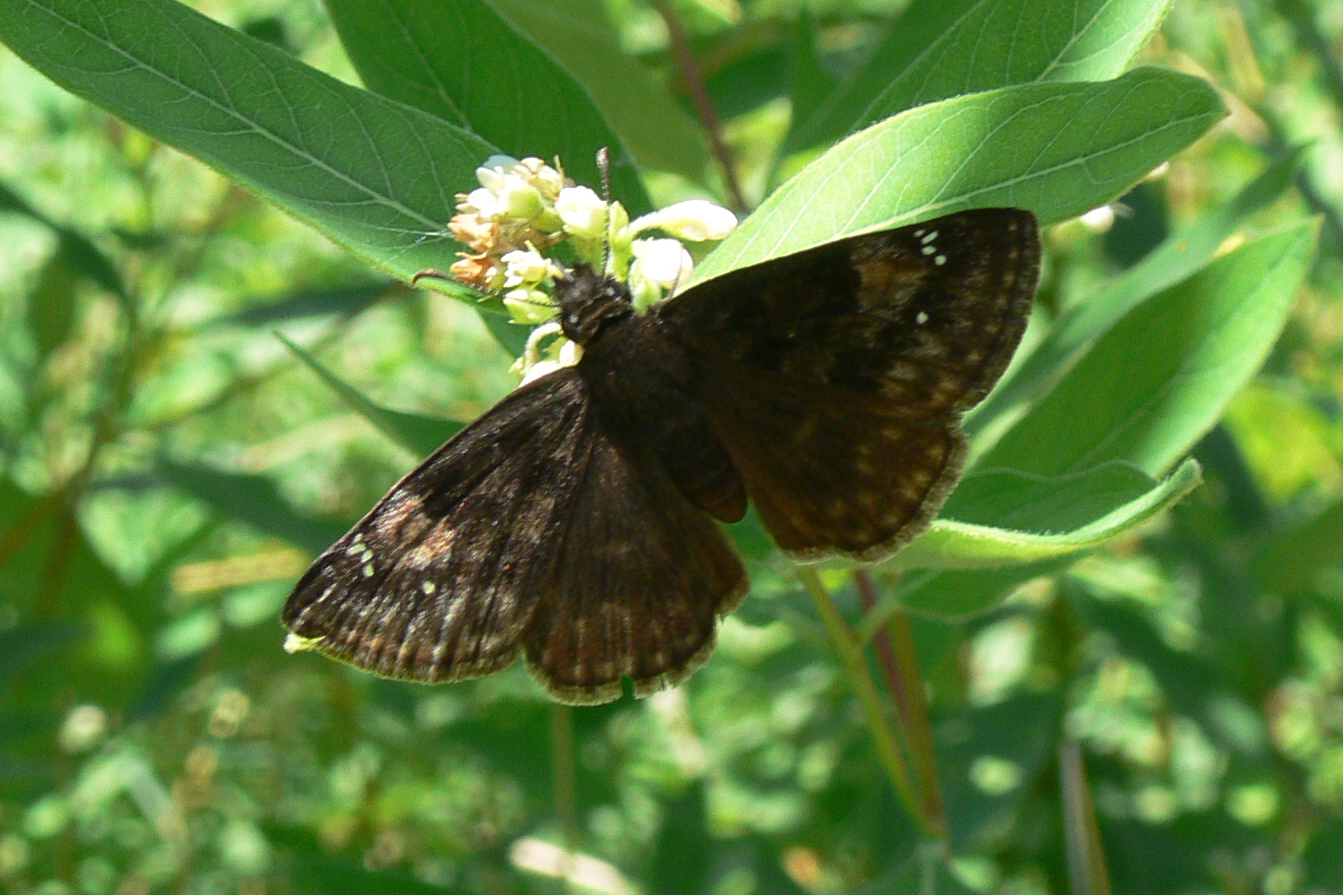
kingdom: Animalia
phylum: Arthropoda
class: Insecta
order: Lepidoptera
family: Hesperiidae
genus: Erynnis
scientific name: Erynnis baptisiae
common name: Wild indigo duskywing
